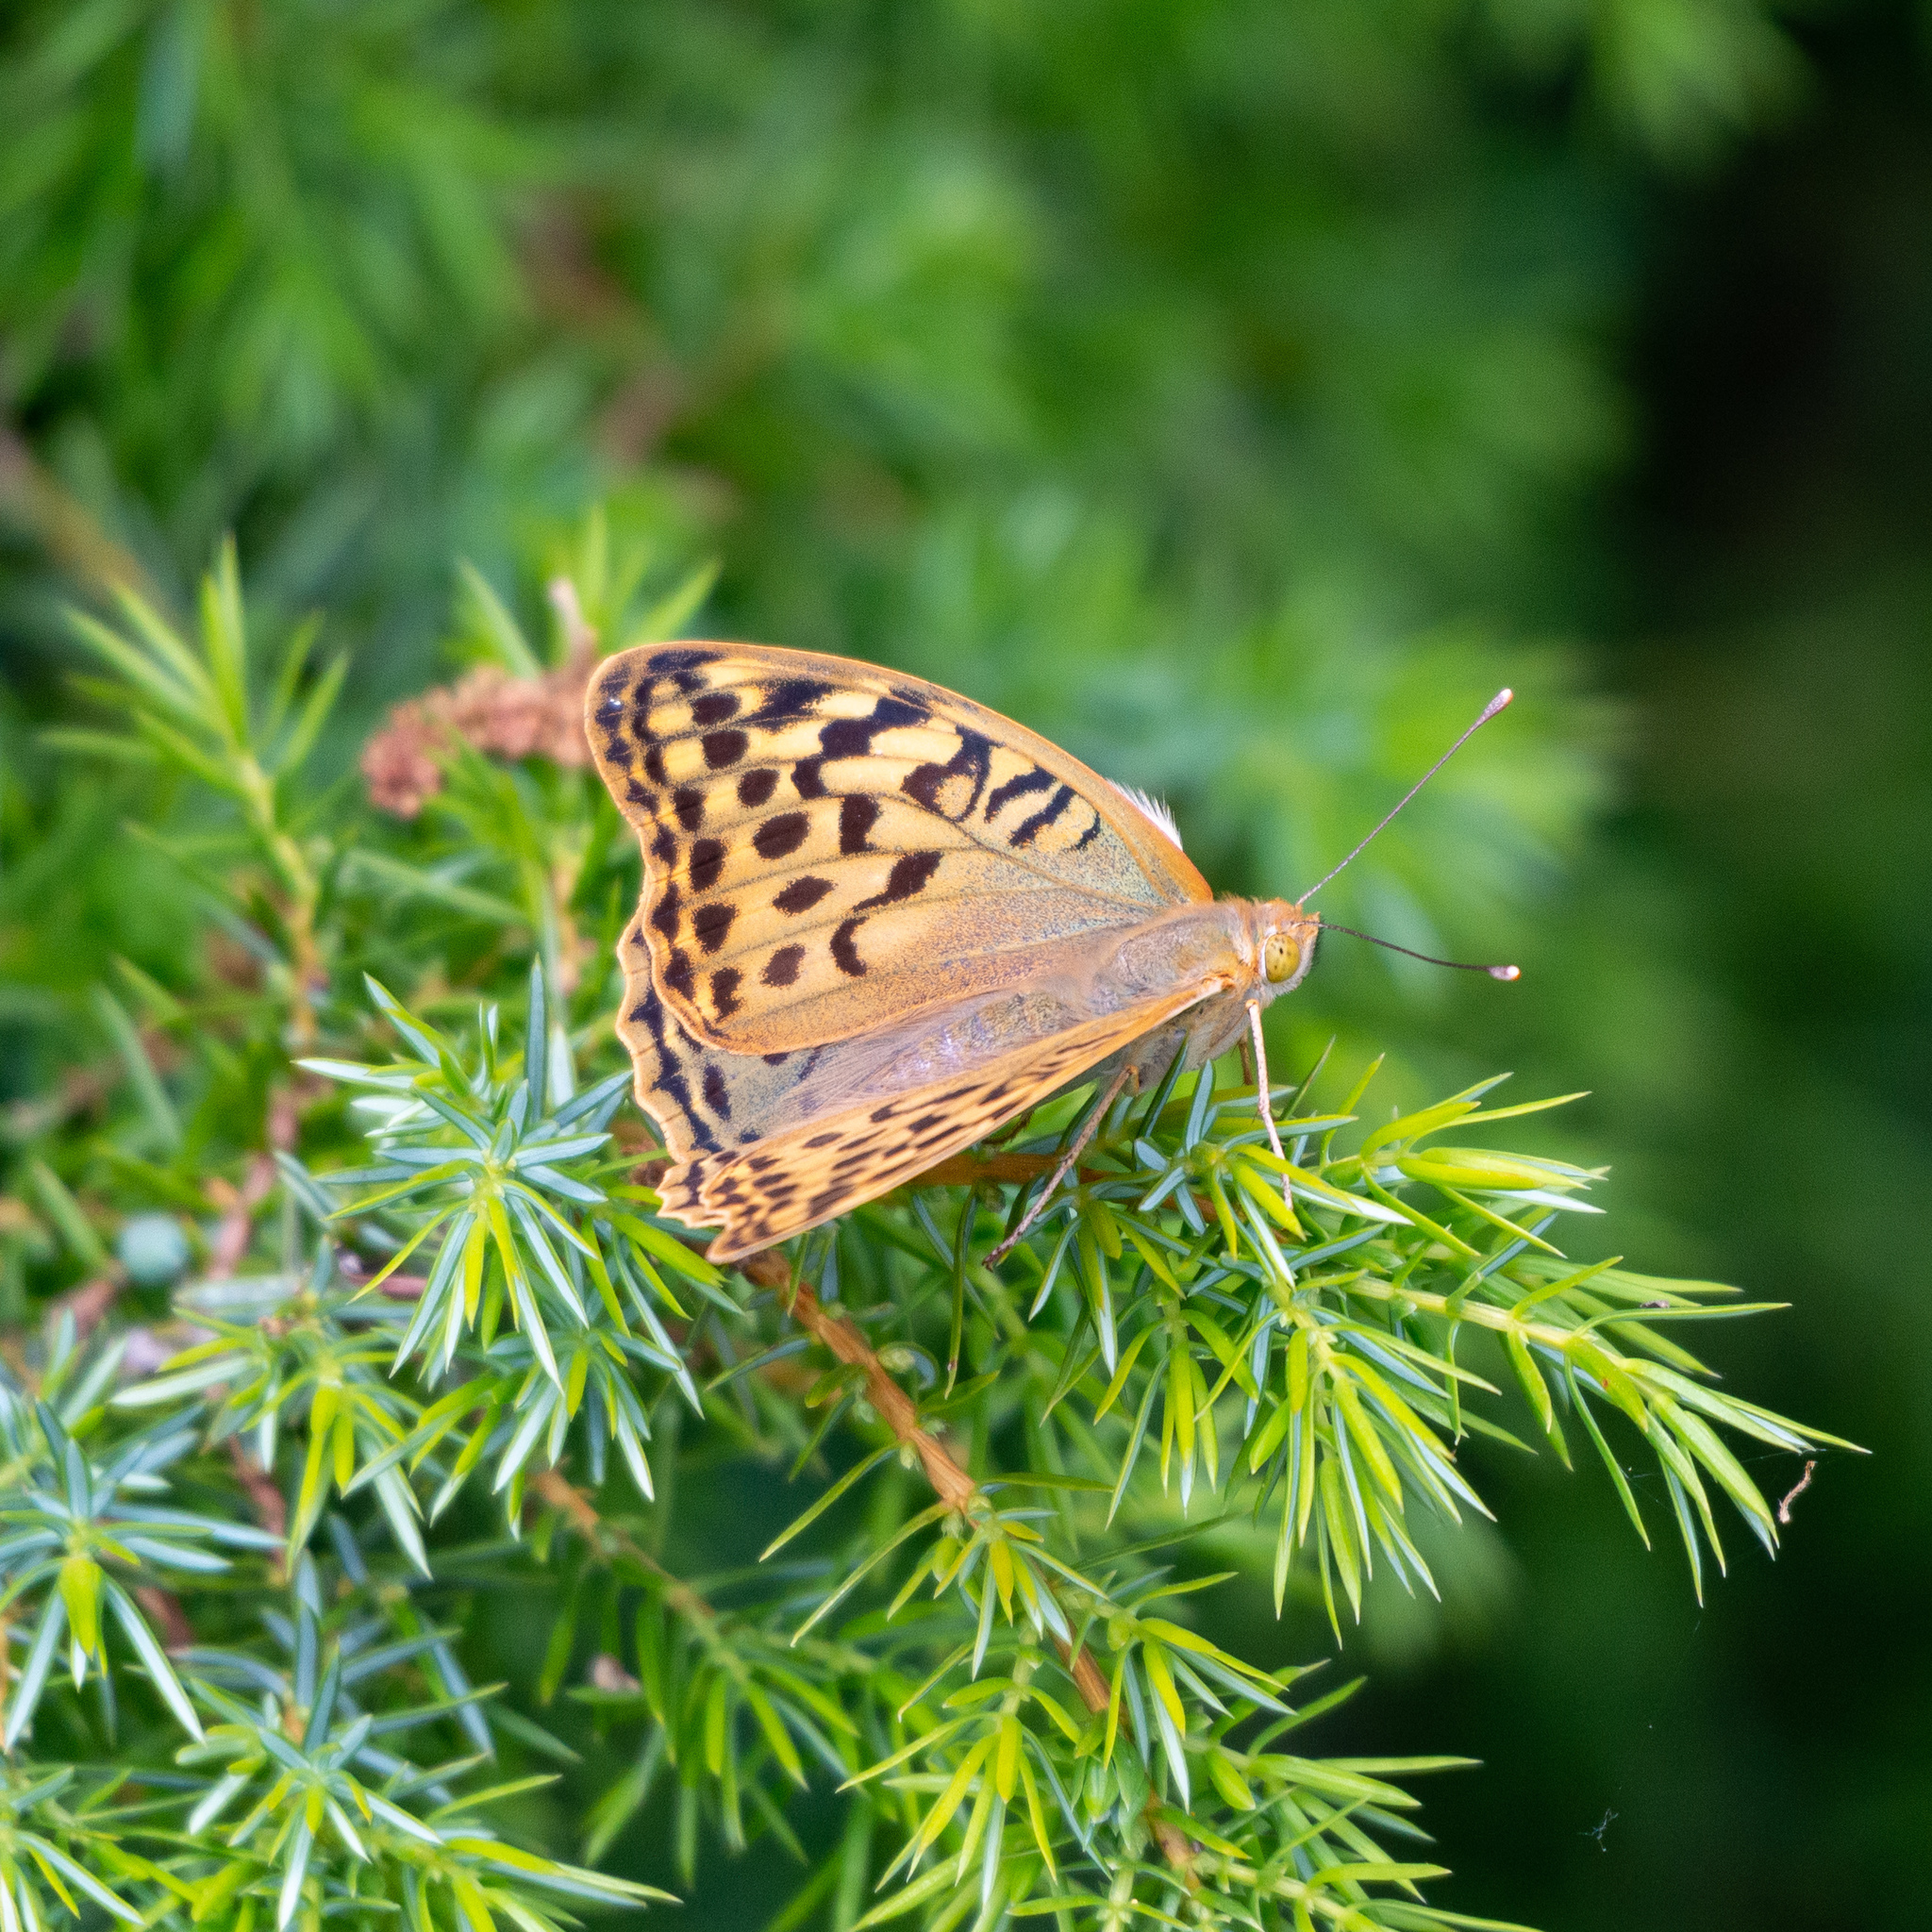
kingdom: Animalia
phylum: Arthropoda
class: Insecta
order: Lepidoptera
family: Nymphalidae
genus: Damora
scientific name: Damora pandora
